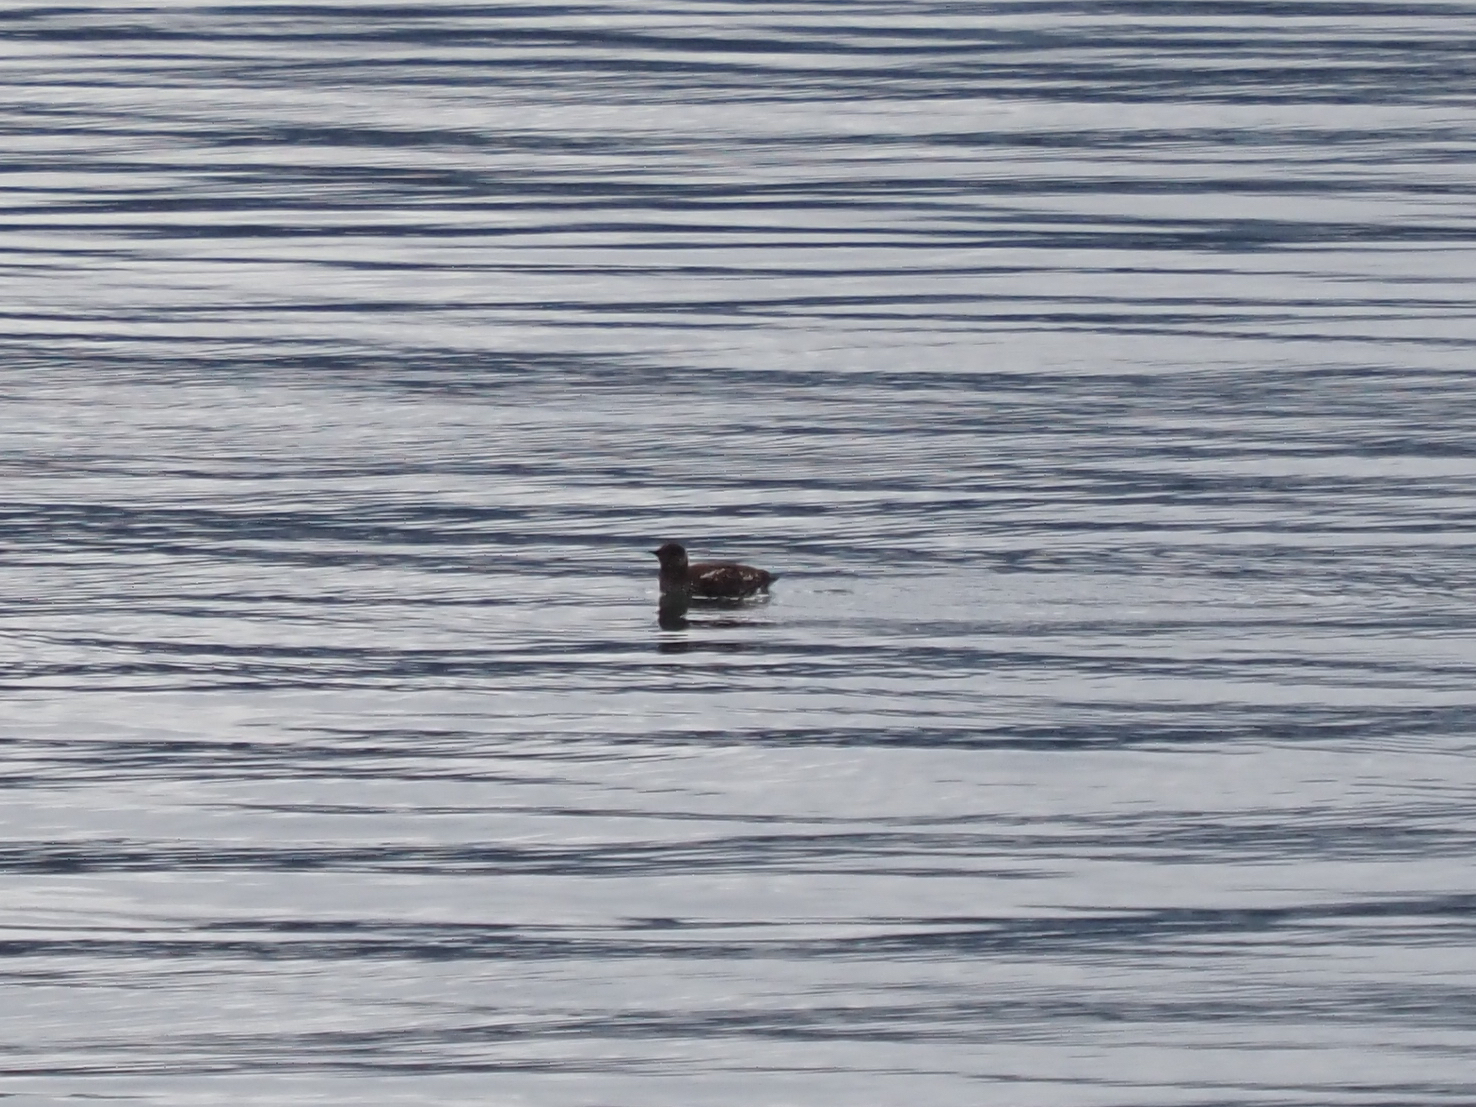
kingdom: Animalia
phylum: Chordata
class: Aves
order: Charadriiformes
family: Alcidae
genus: Brachyramphus
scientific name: Brachyramphus marmoratus
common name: Marbled murrelet
